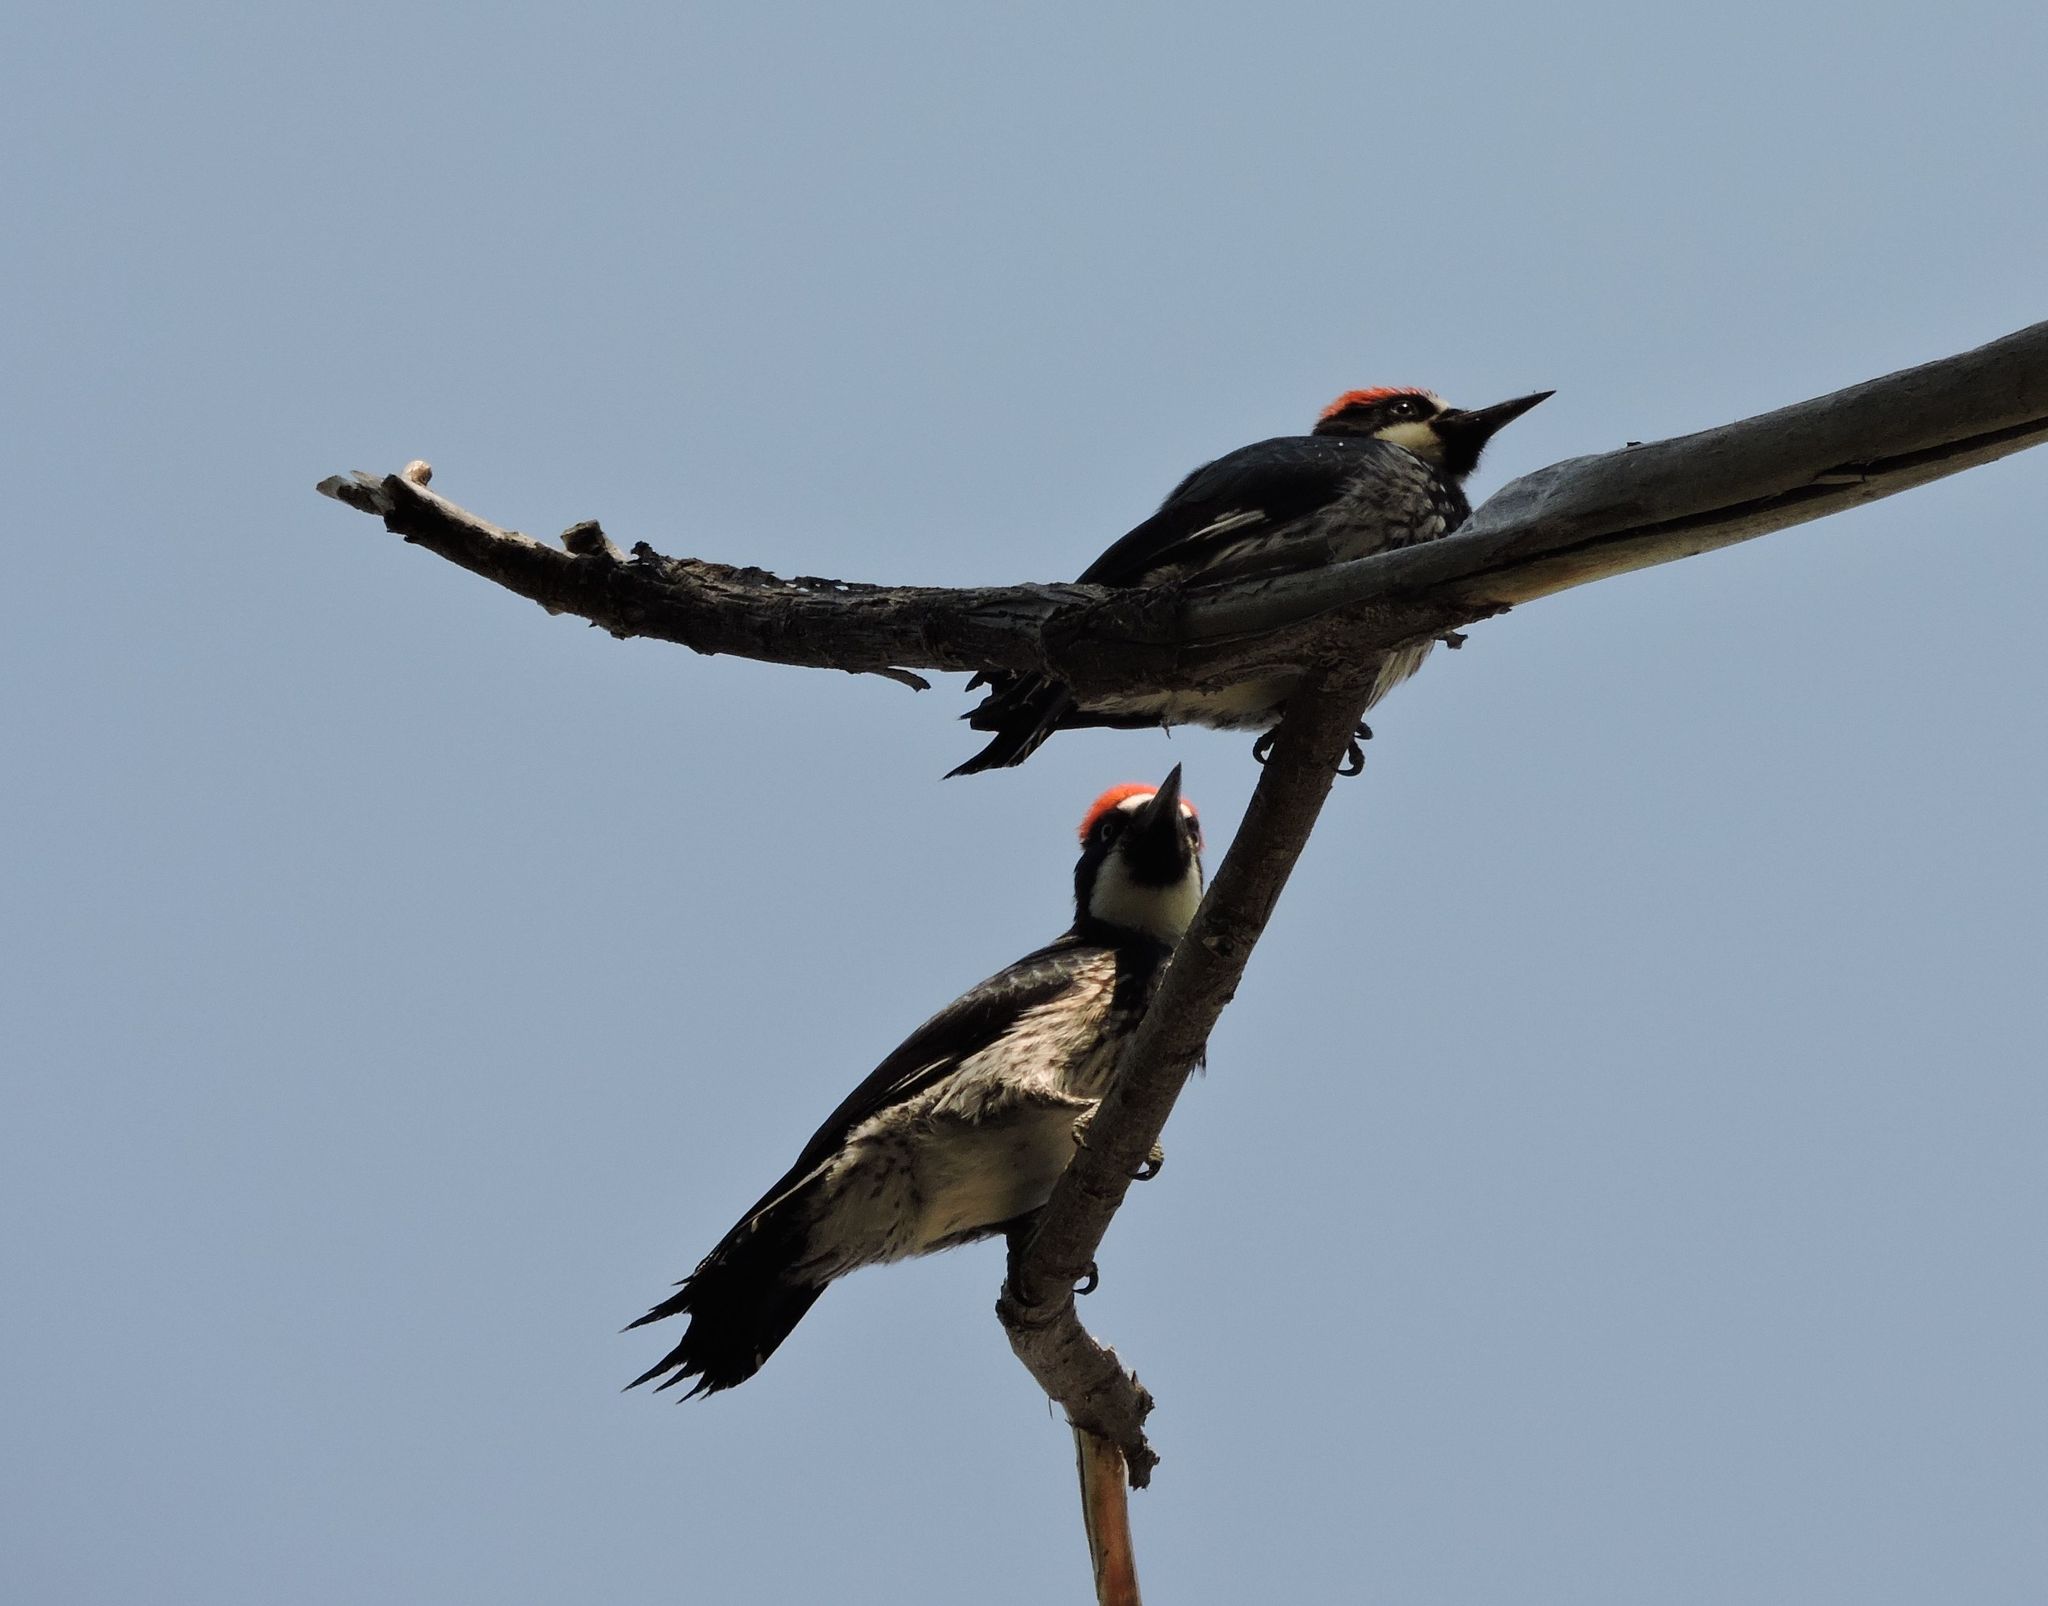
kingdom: Animalia
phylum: Chordata
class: Aves
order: Piciformes
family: Picidae
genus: Melanerpes
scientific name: Melanerpes formicivorus
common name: Acorn woodpecker
